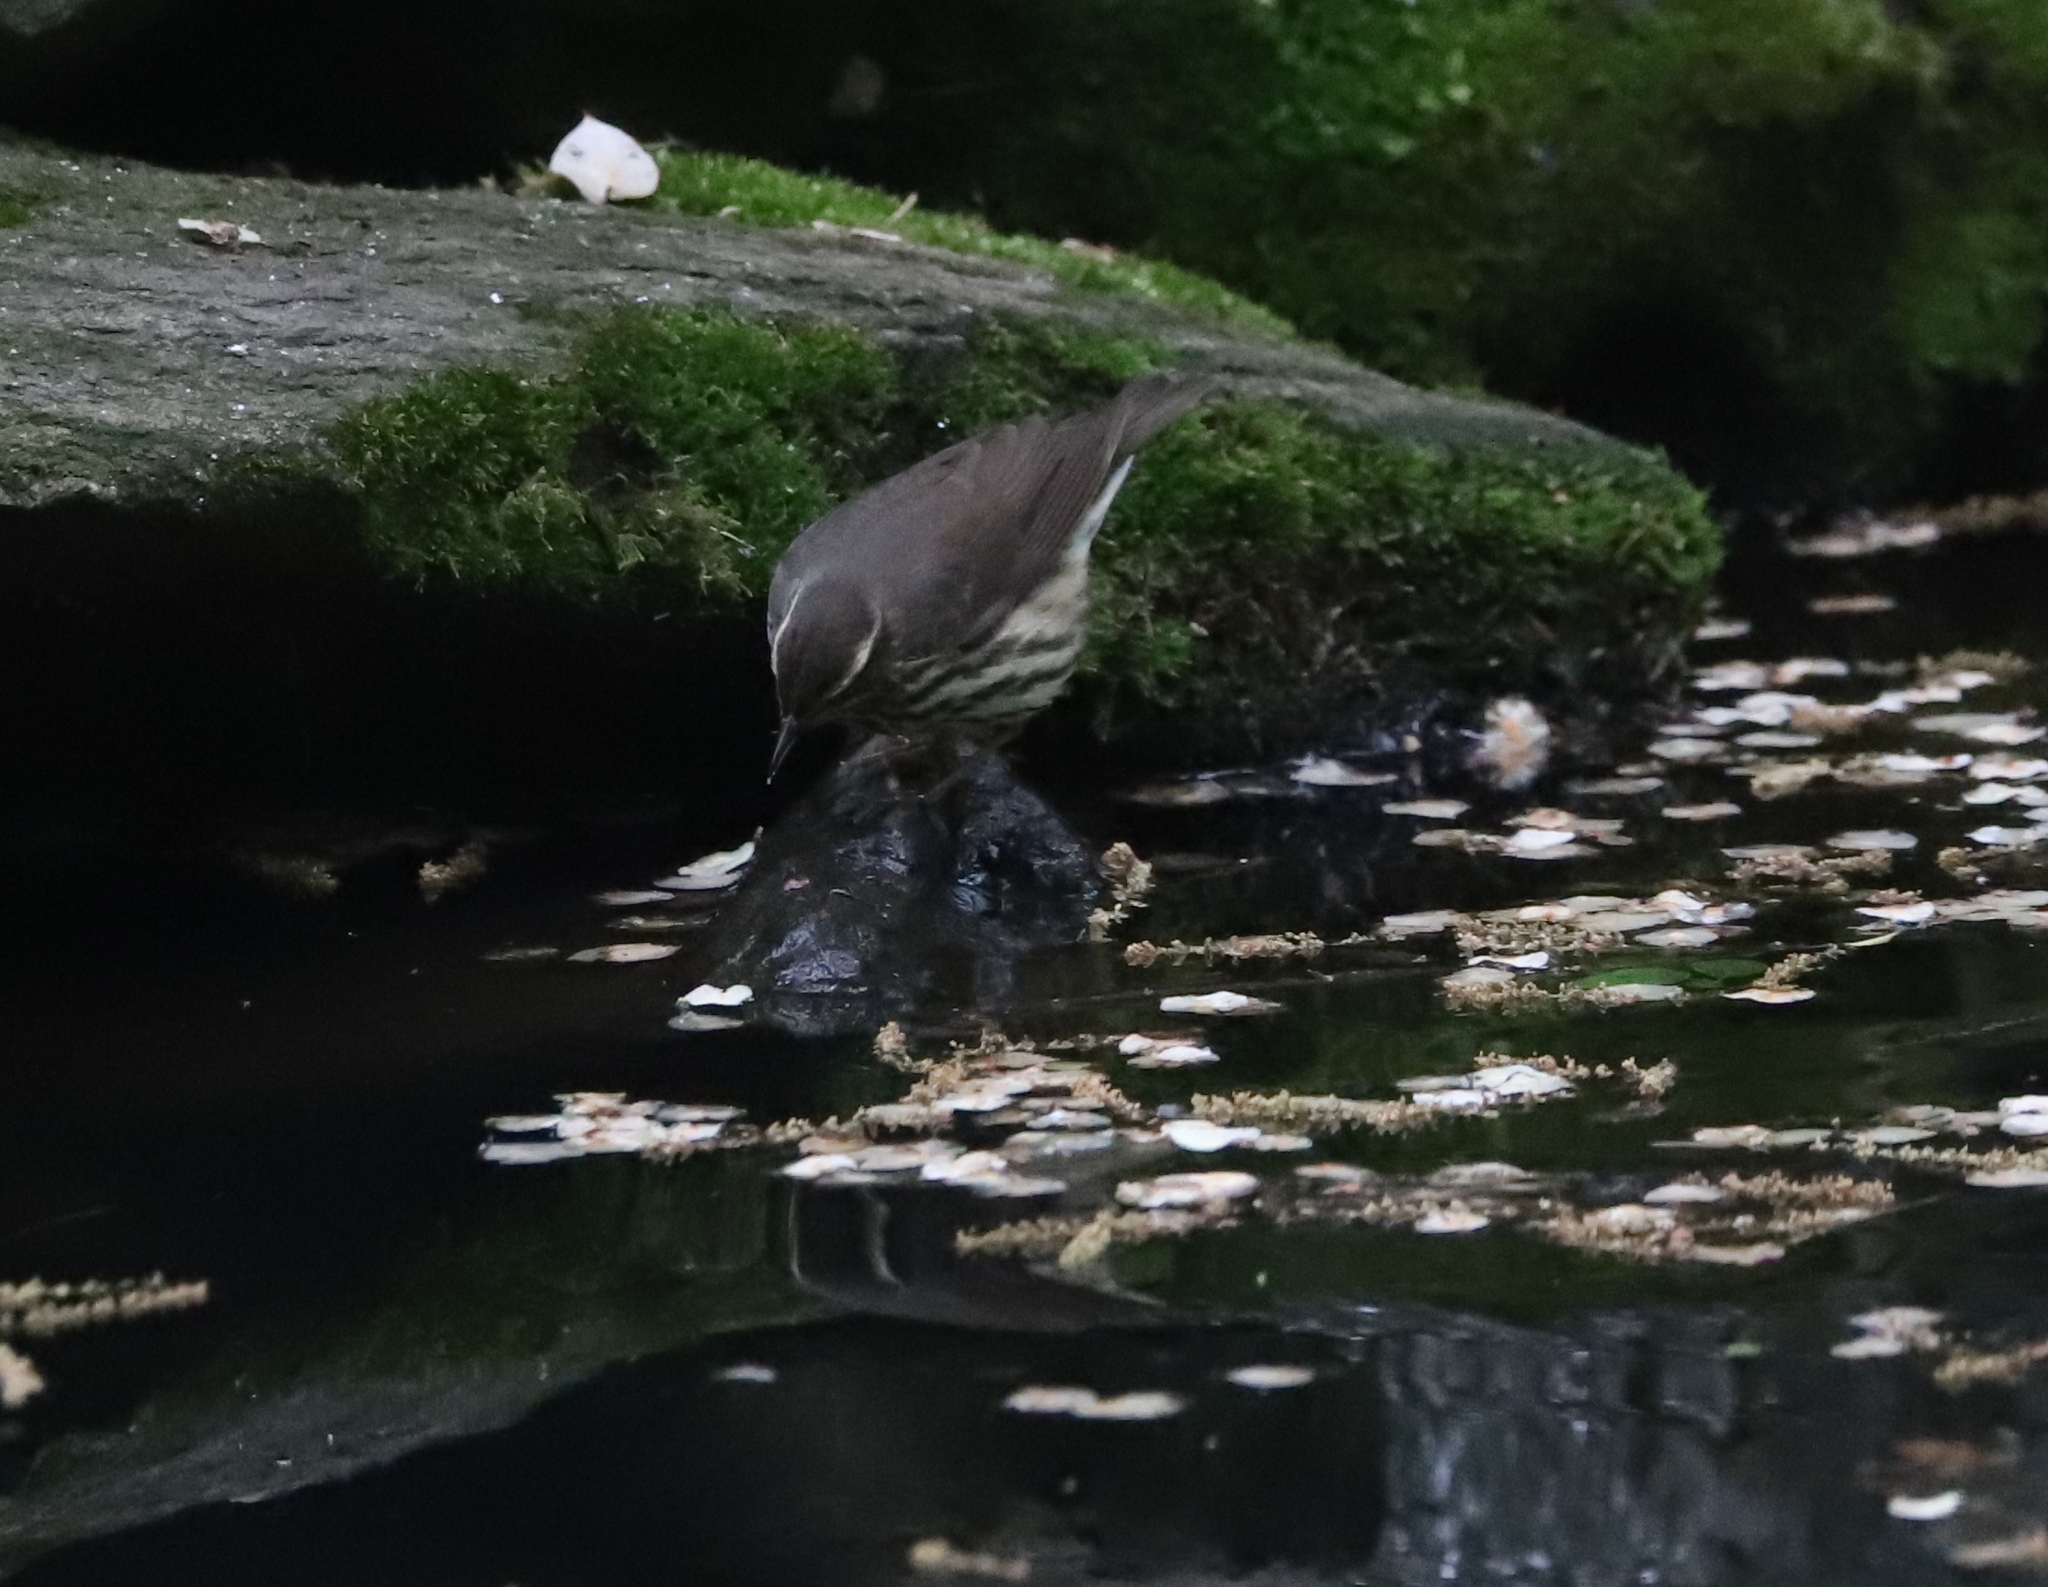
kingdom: Animalia
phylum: Chordata
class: Aves
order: Passeriformes
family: Parulidae
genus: Parkesia
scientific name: Parkesia noveboracensis
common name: Northern waterthrush
